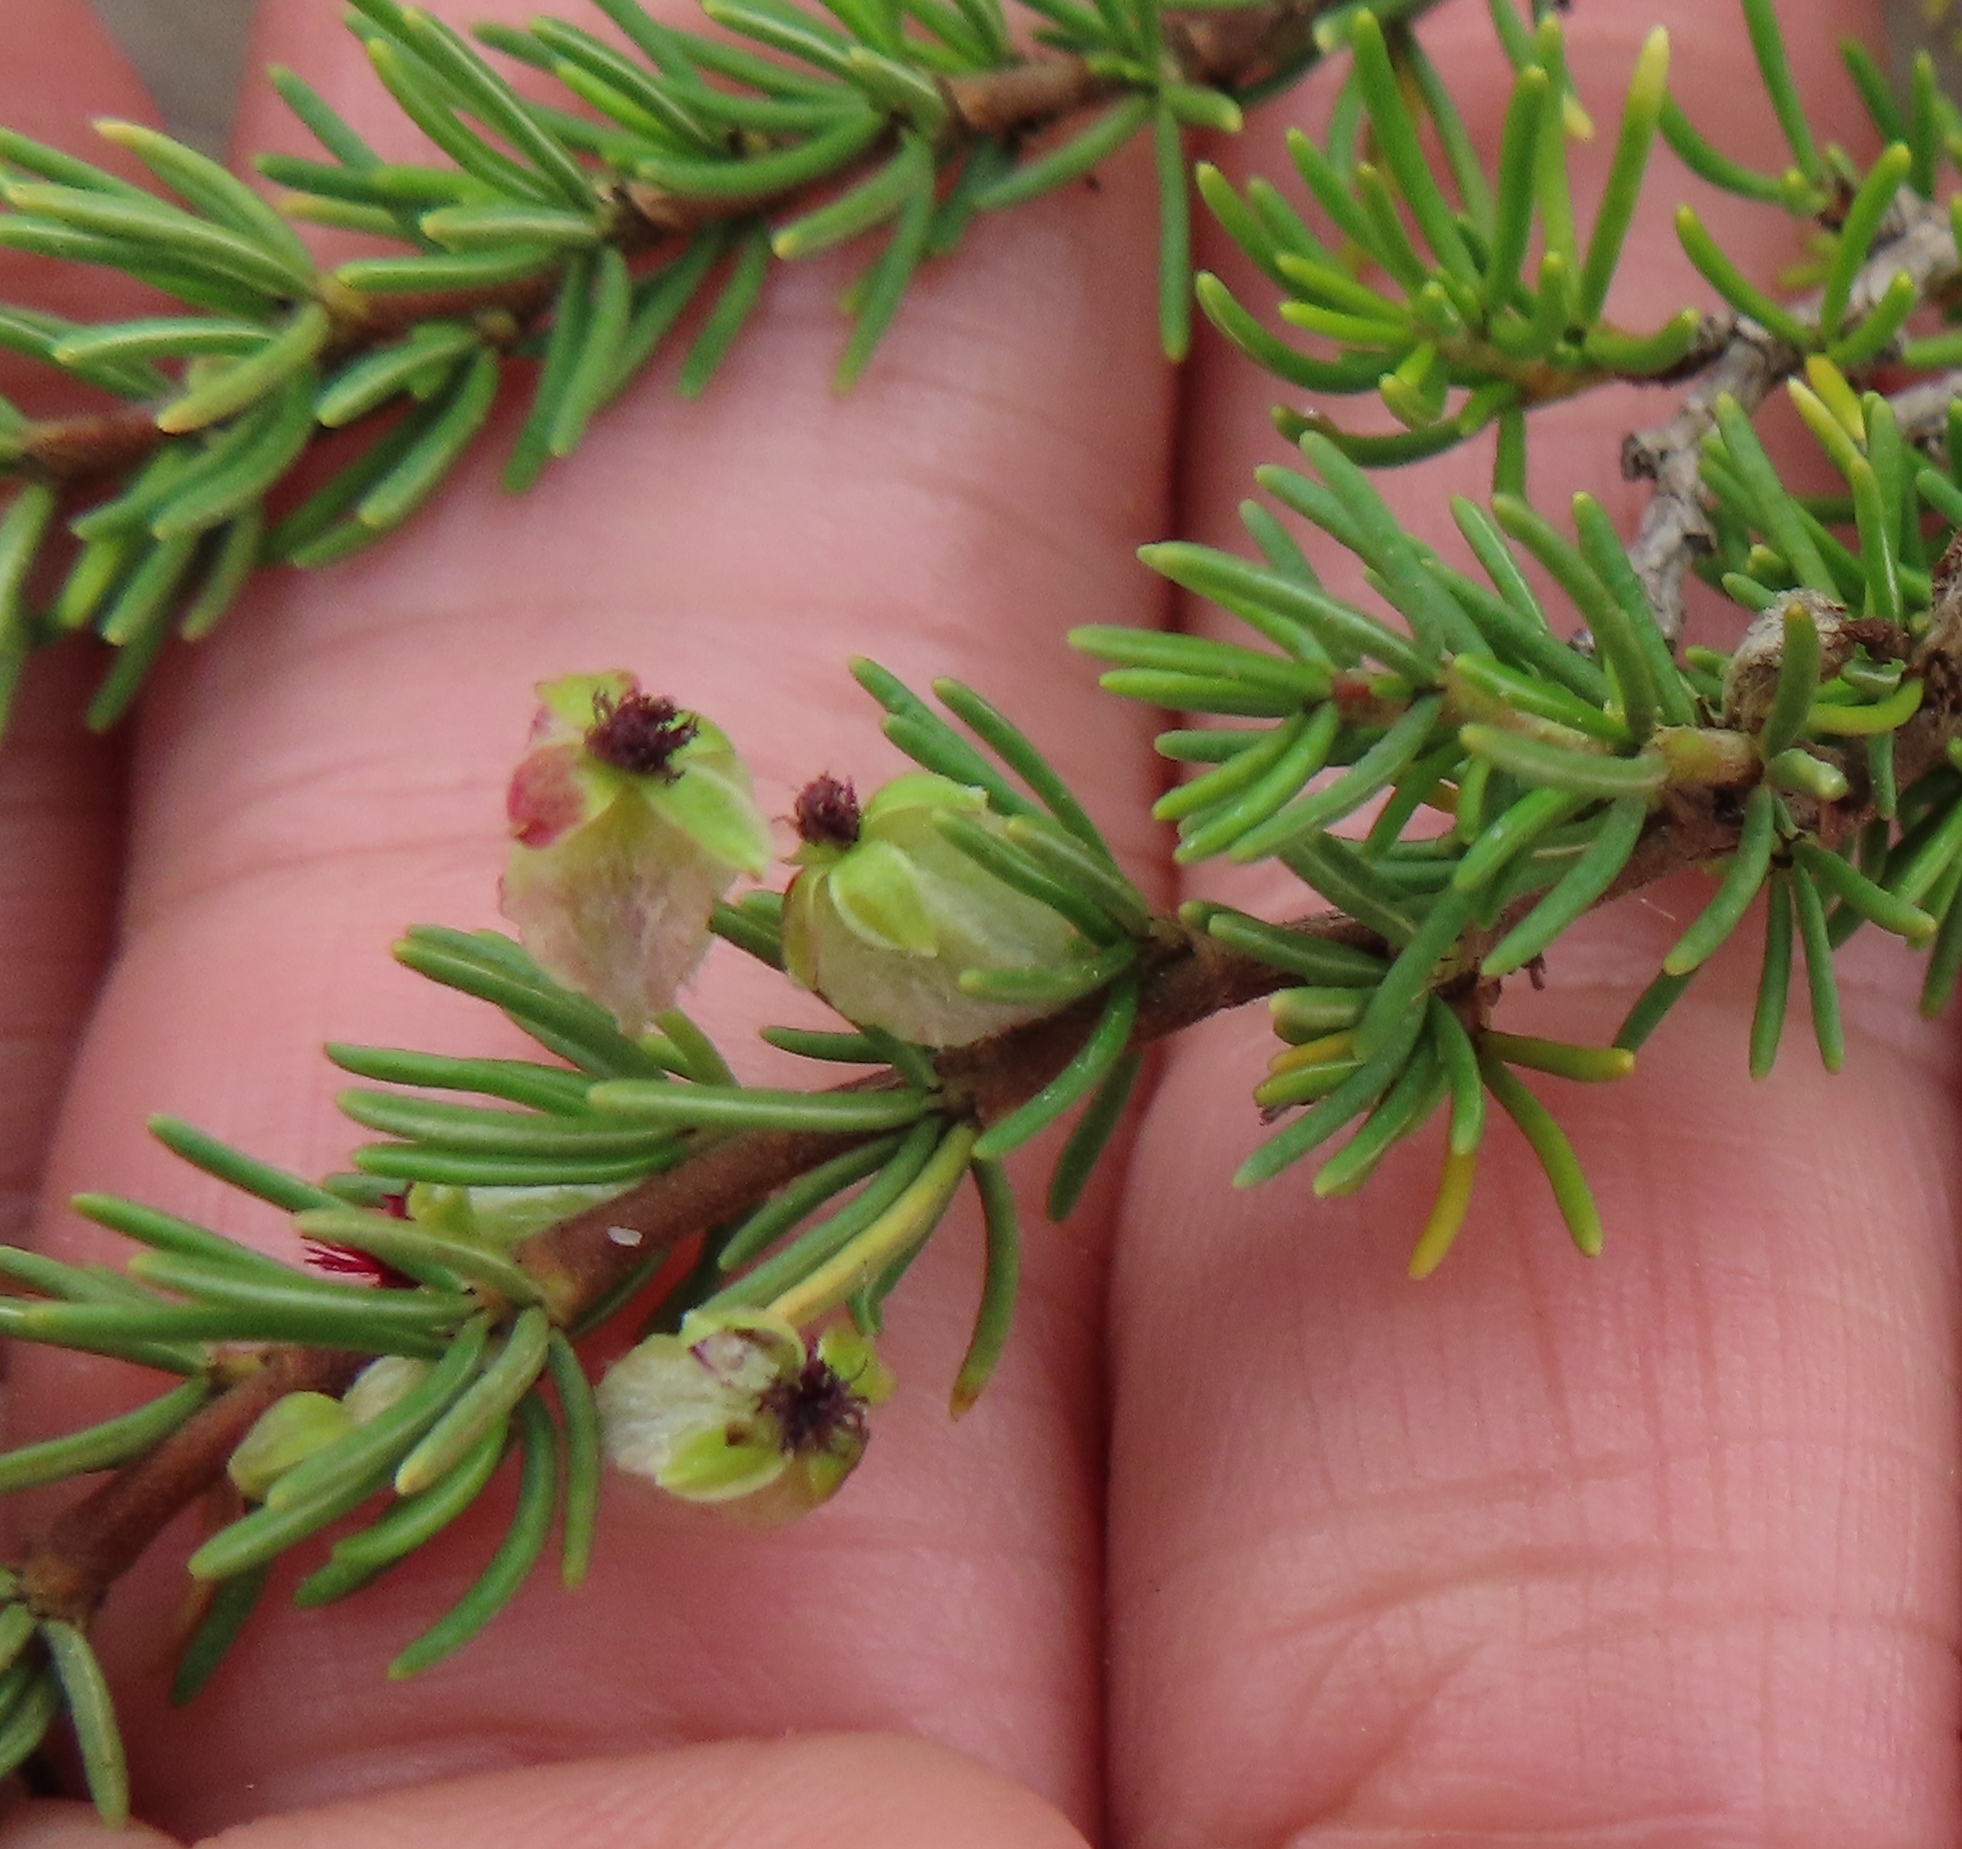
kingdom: Plantae
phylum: Tracheophyta
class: Magnoliopsida
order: Rosales
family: Rosaceae
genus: Cliffortia
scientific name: Cliffortia burgersii
